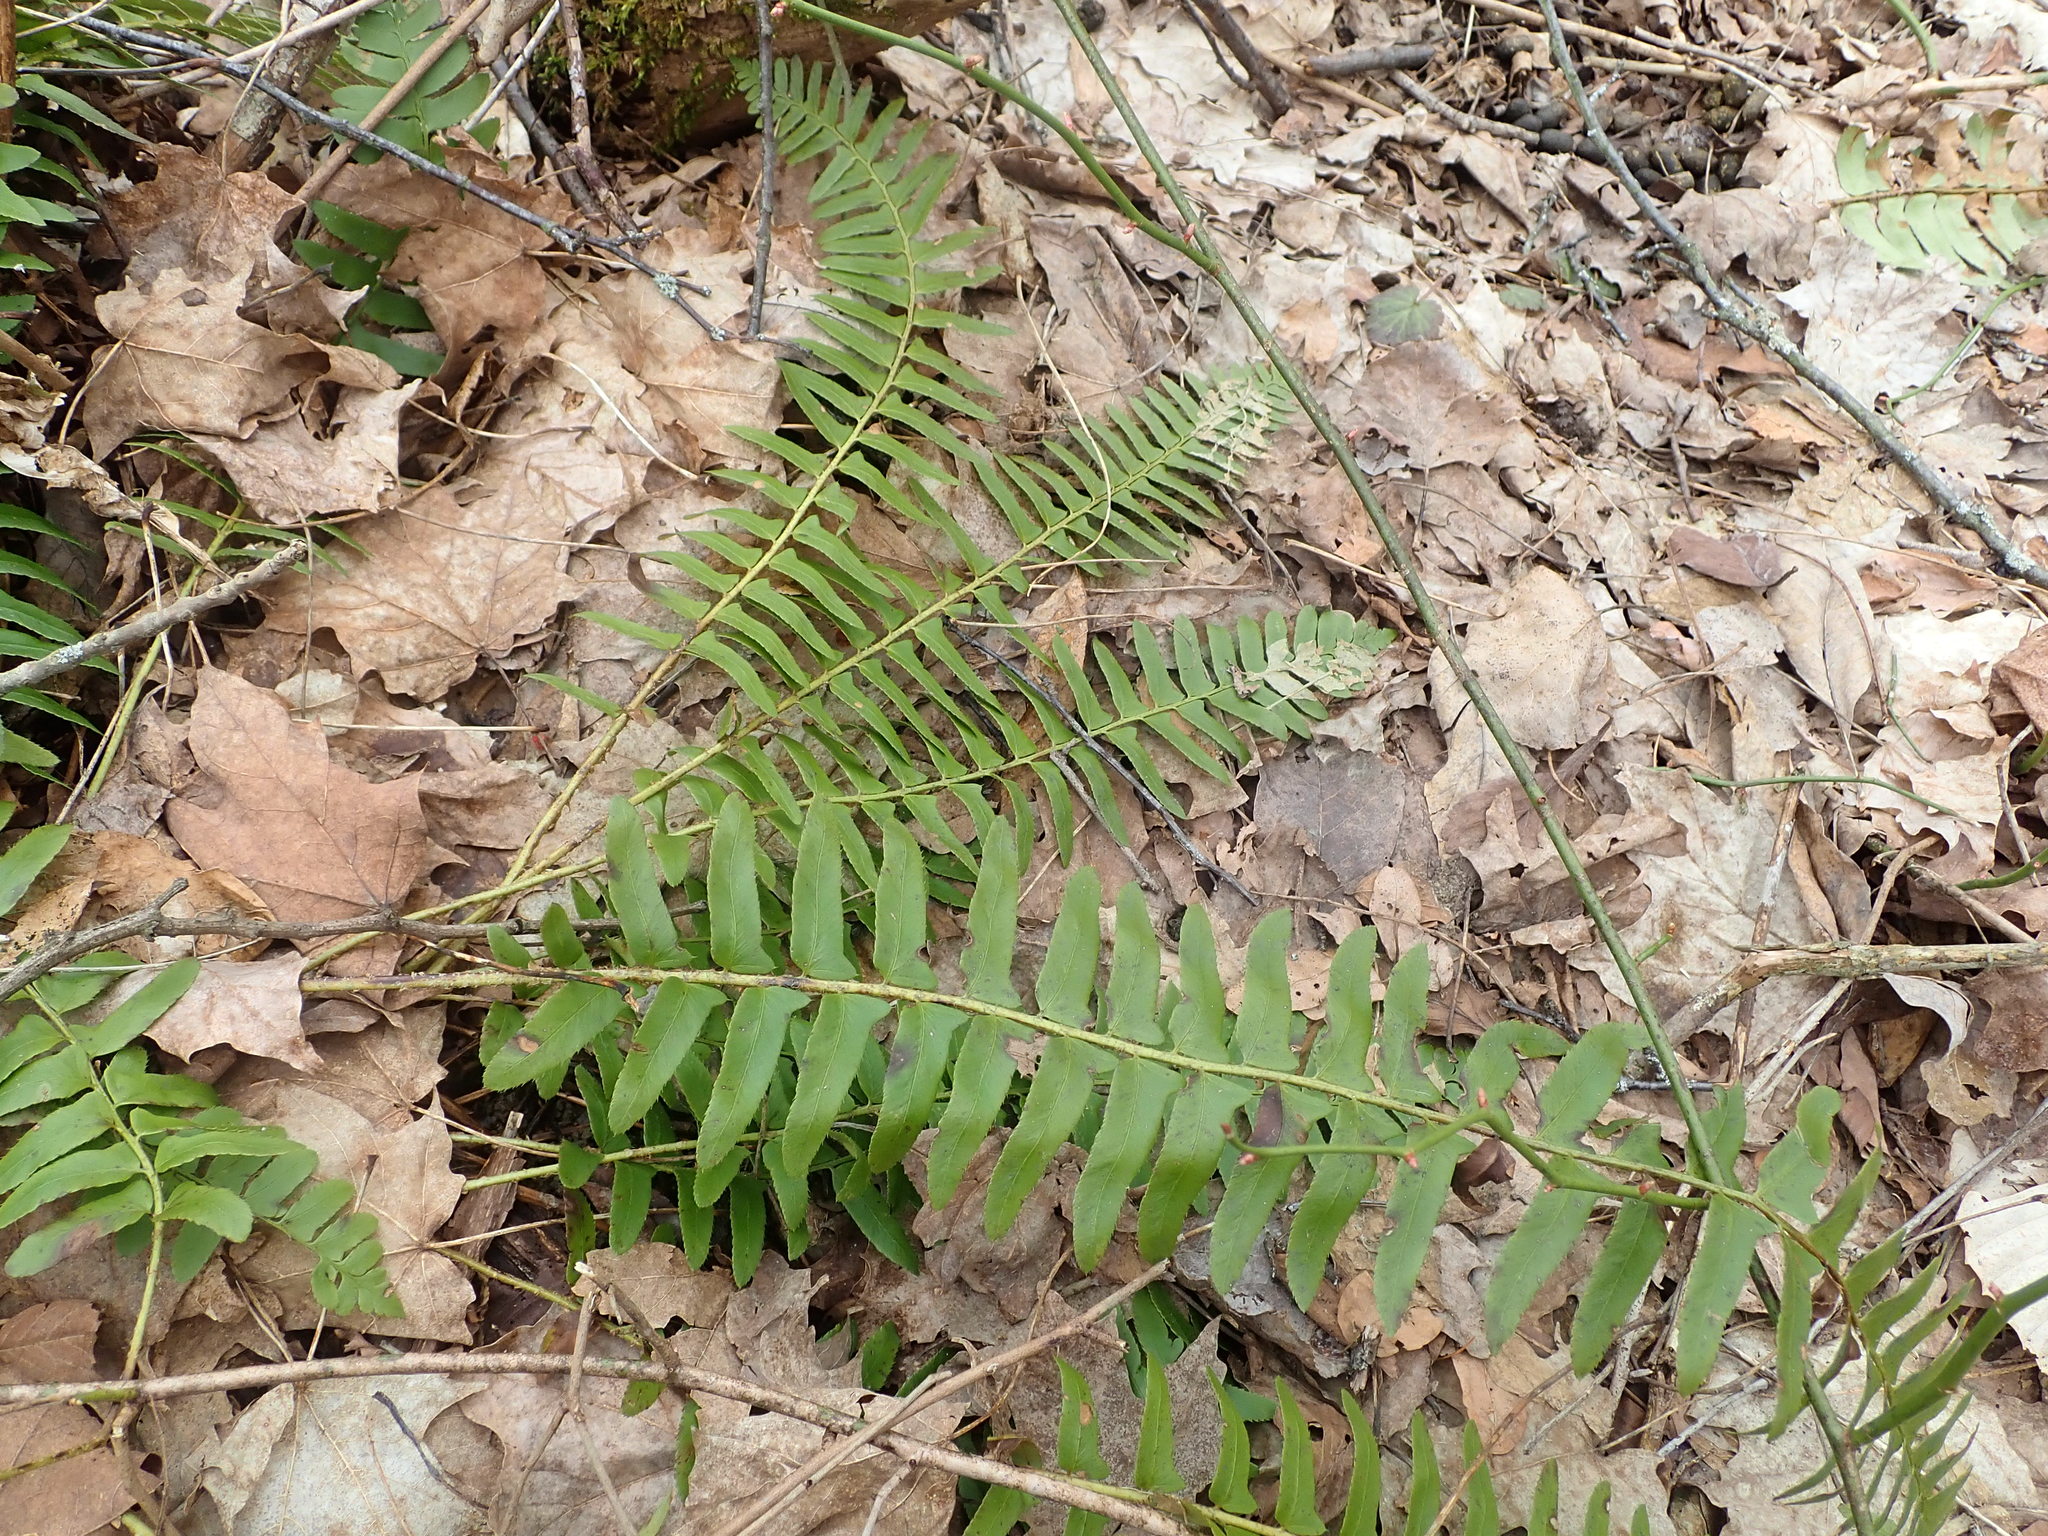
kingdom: Plantae
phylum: Tracheophyta
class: Polypodiopsida
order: Polypodiales
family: Dryopteridaceae
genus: Polystichum
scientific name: Polystichum acrostichoides
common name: Christmas fern
